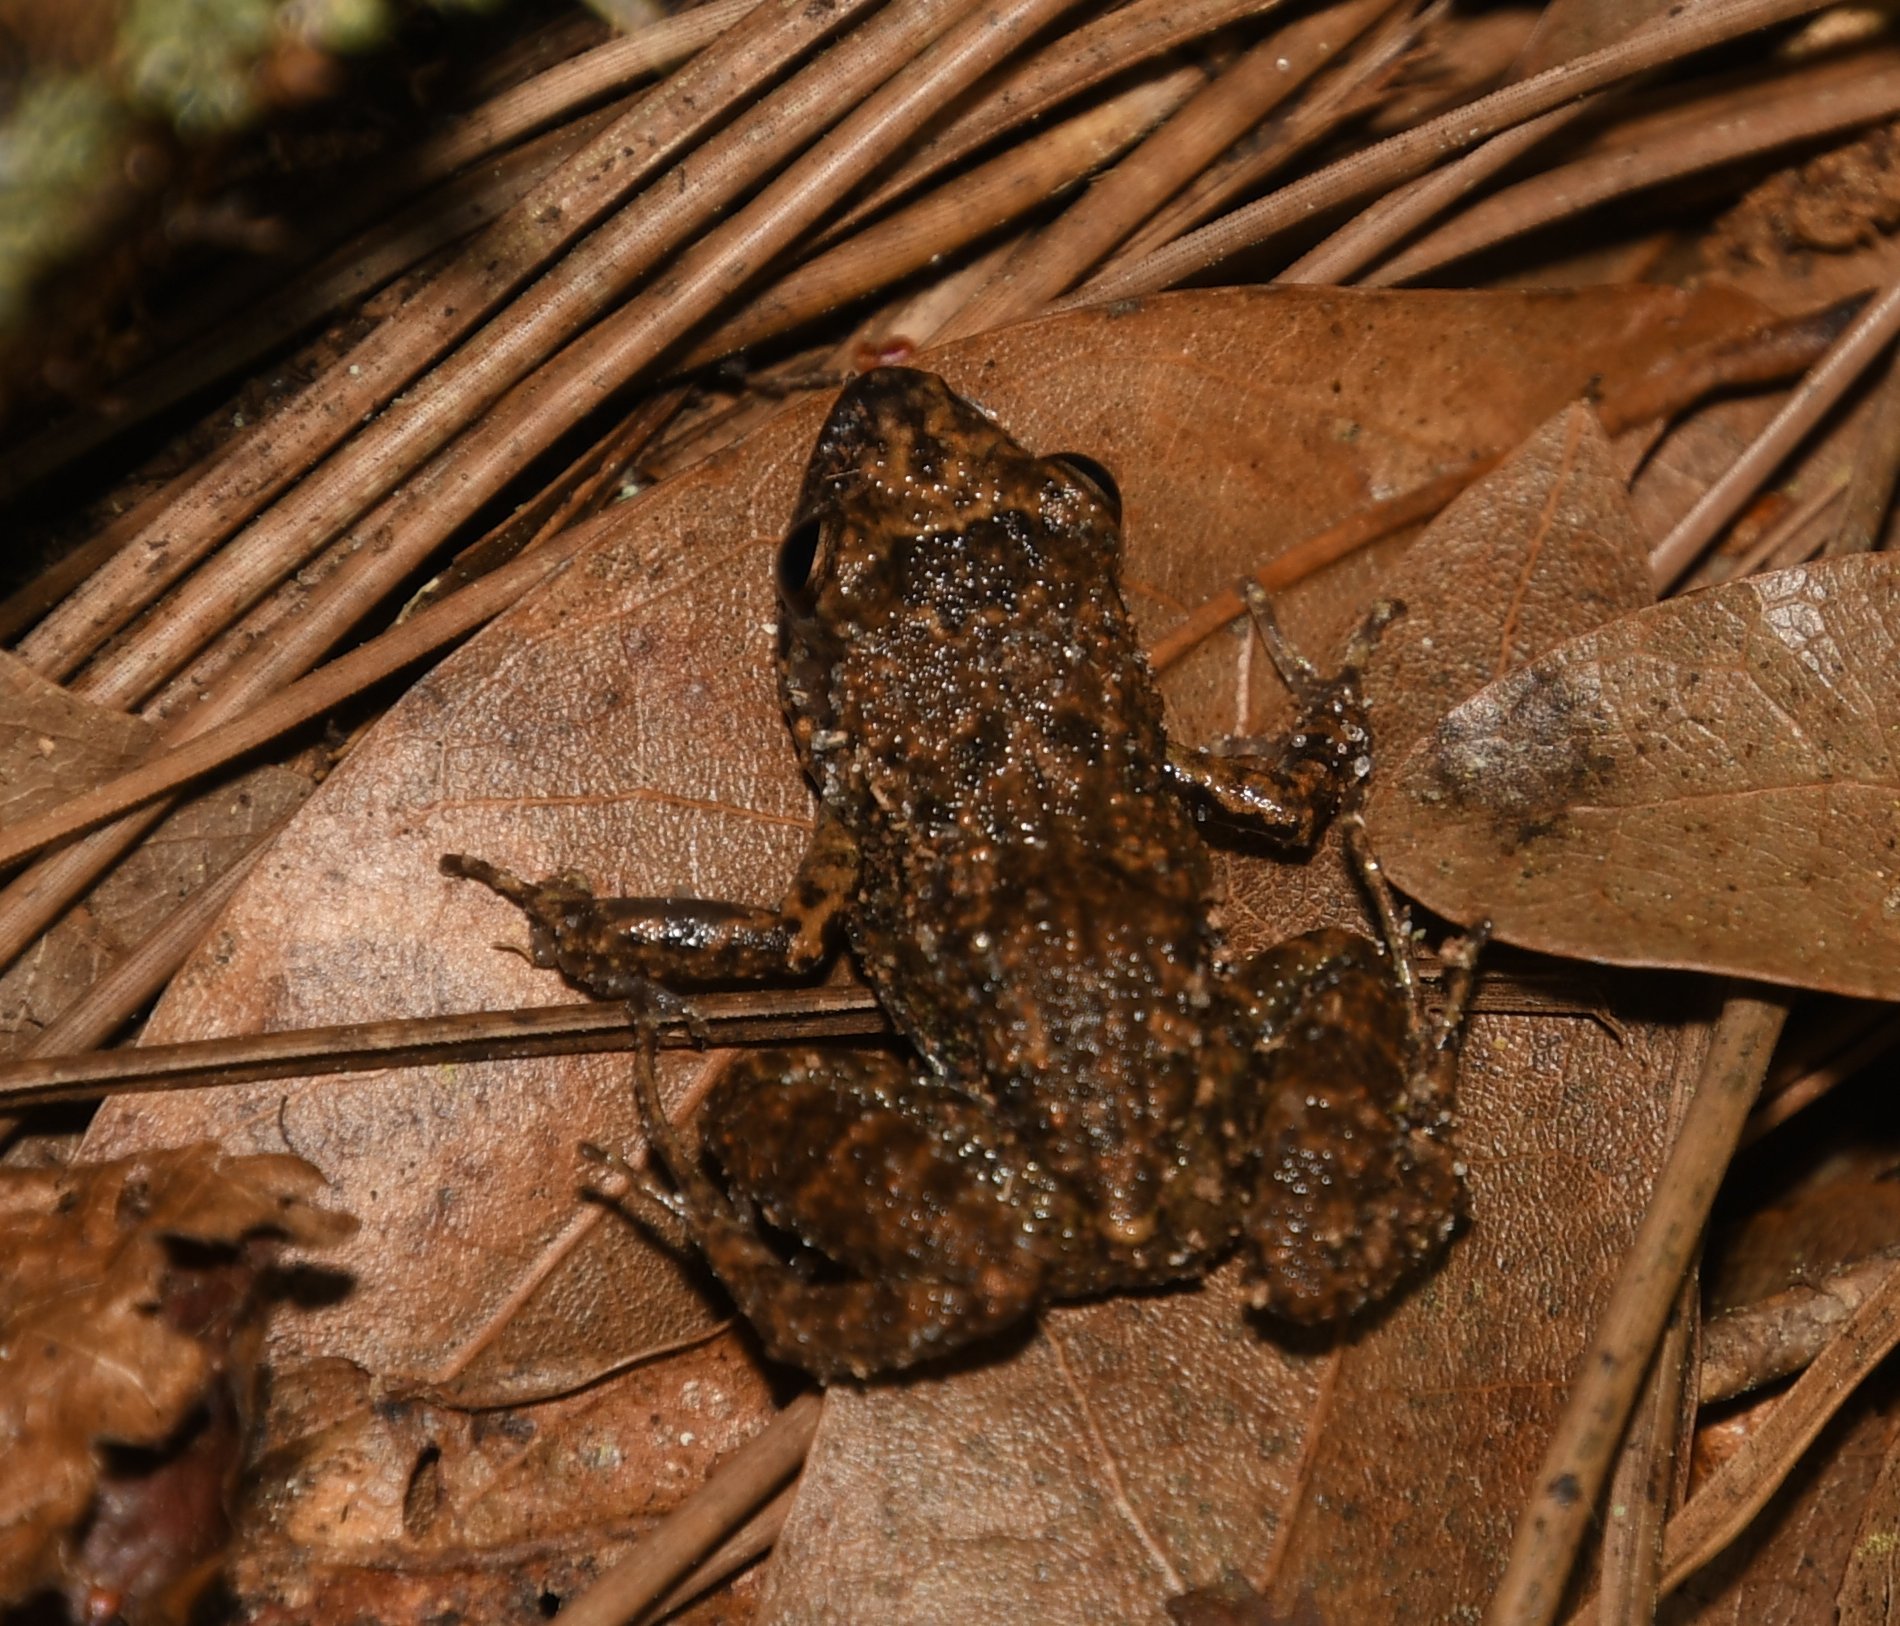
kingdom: Animalia
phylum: Chordata
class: Amphibia
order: Anura
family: Eleutherodactylidae
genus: Eleutherodactylus
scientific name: Eleutherodactylus planirostris
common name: Greenhouse frog
